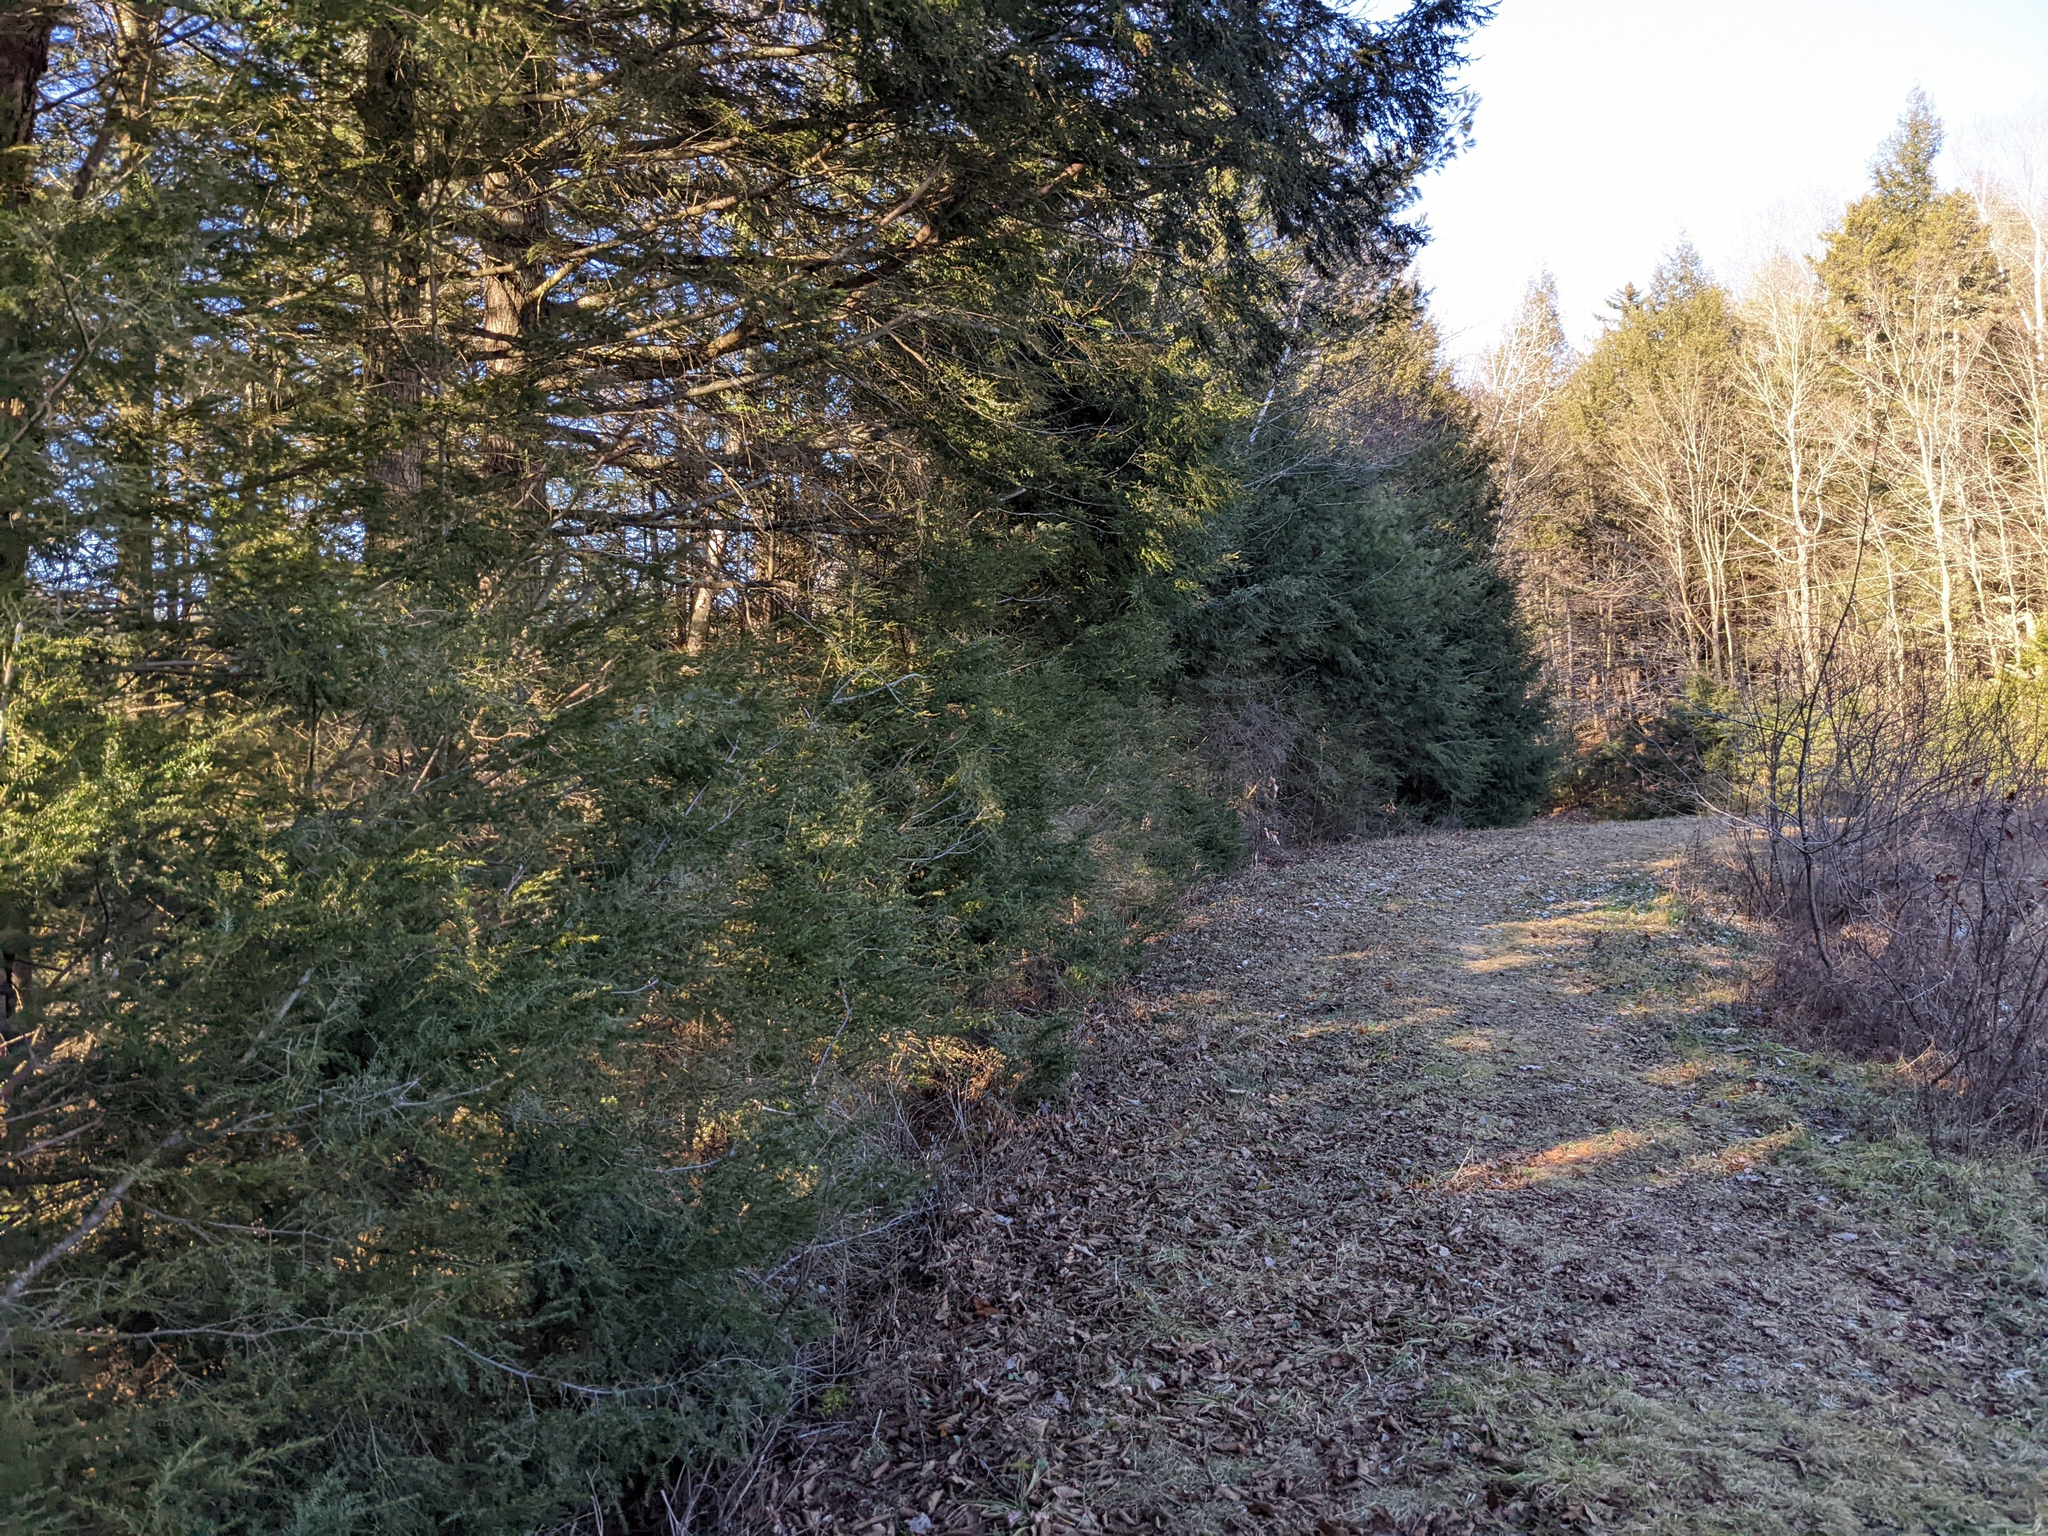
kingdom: Plantae
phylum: Tracheophyta
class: Pinopsida
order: Pinales
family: Pinaceae
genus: Tsuga
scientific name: Tsuga canadensis
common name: Eastern hemlock
